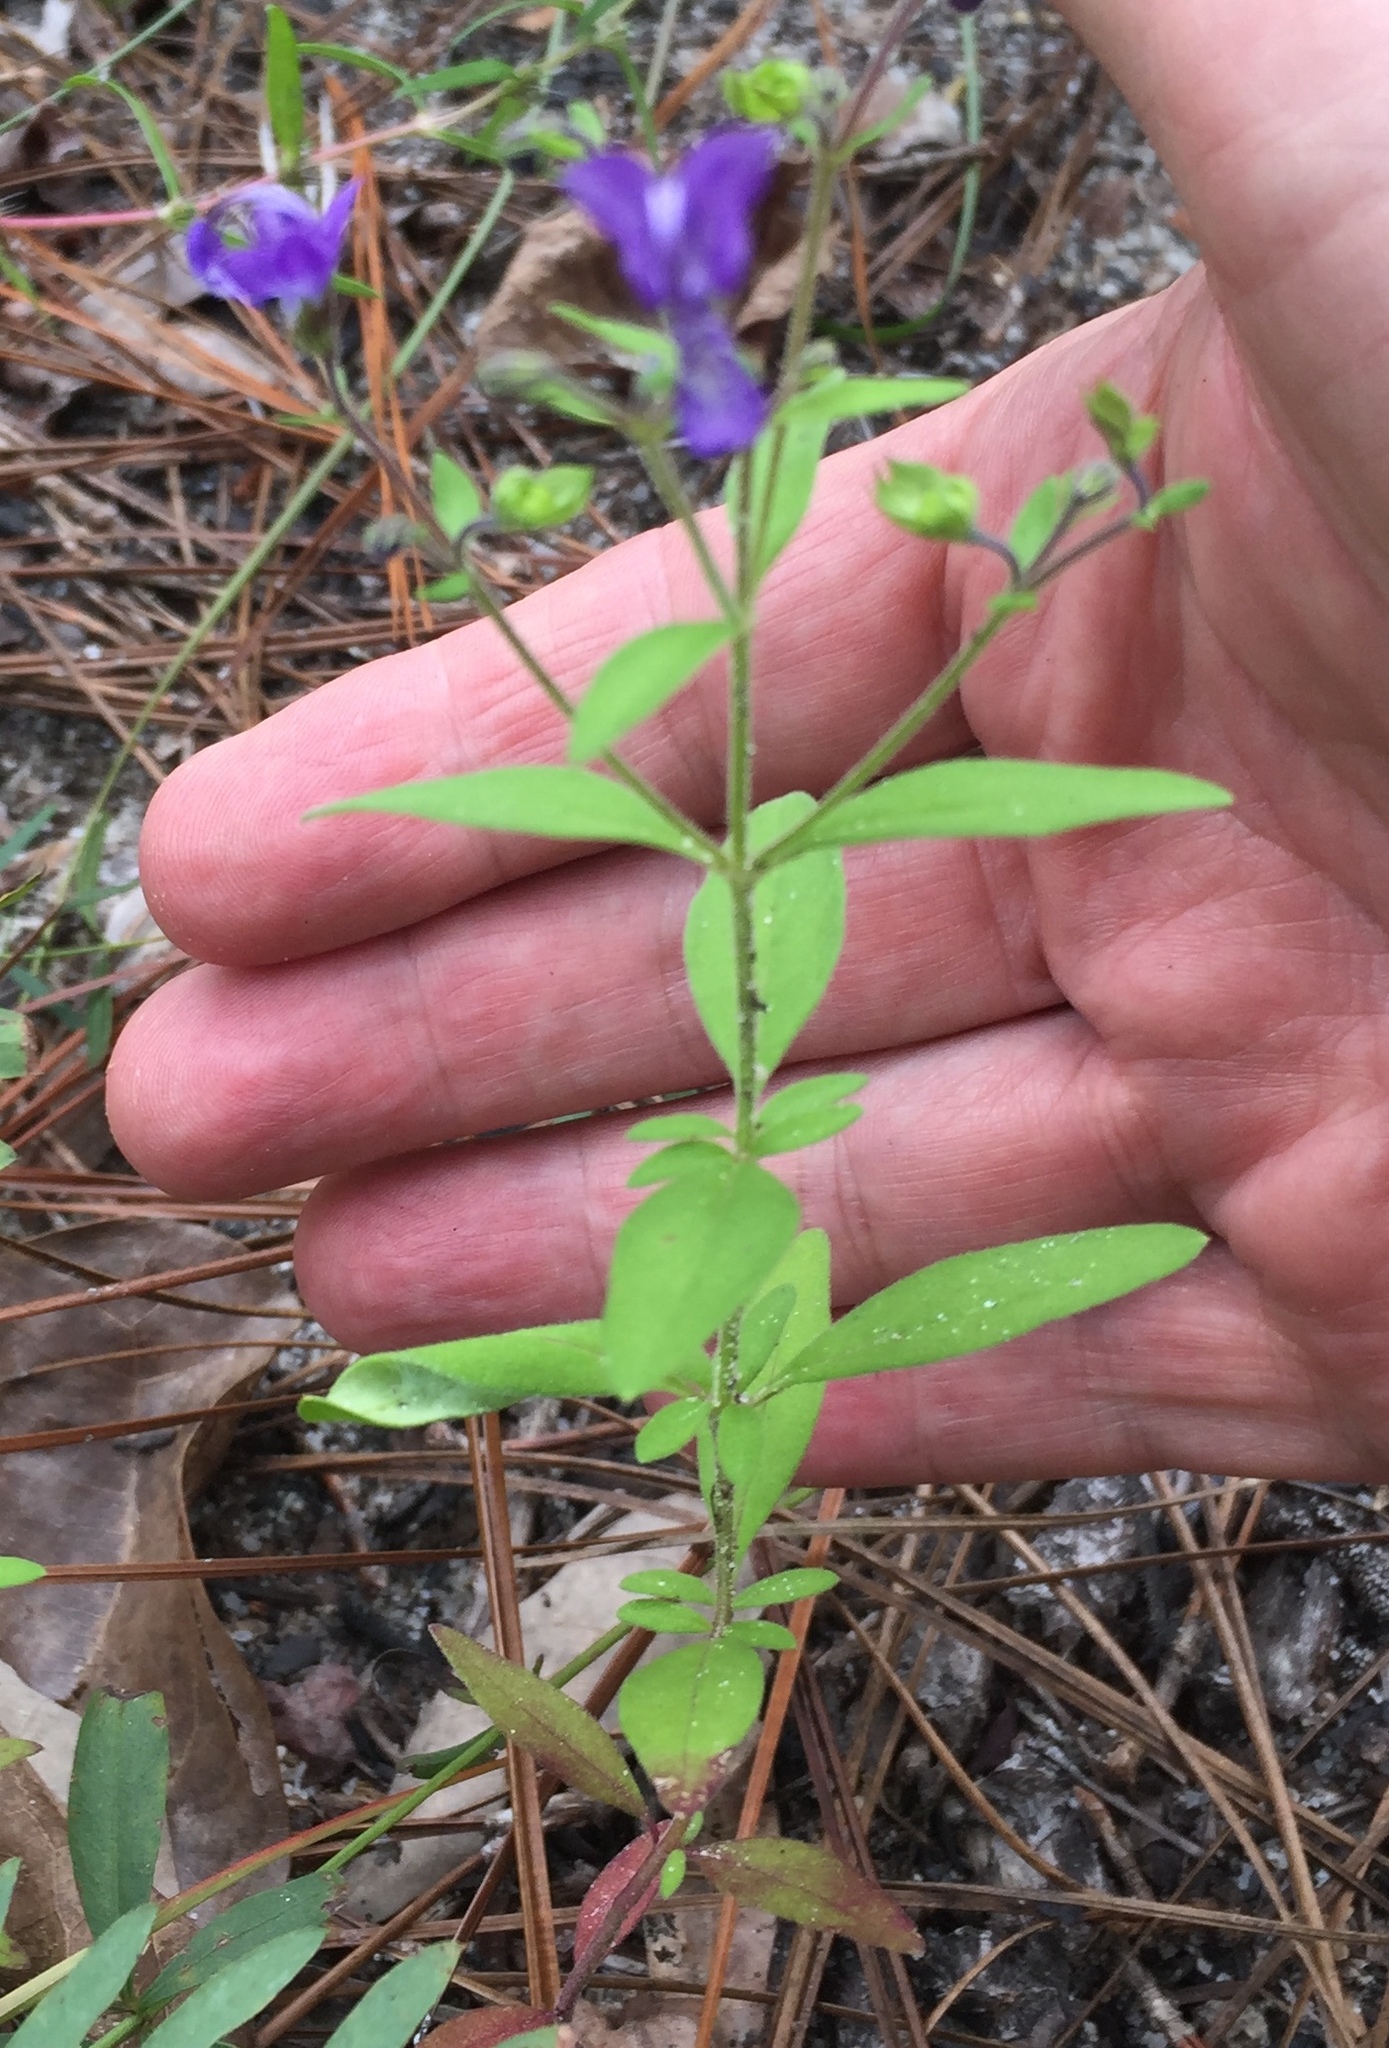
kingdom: Plantae
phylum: Tracheophyta
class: Magnoliopsida
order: Lamiales
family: Lamiaceae
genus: Trichostema
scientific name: Trichostema dichotomum
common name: Bastard pennyroyal
